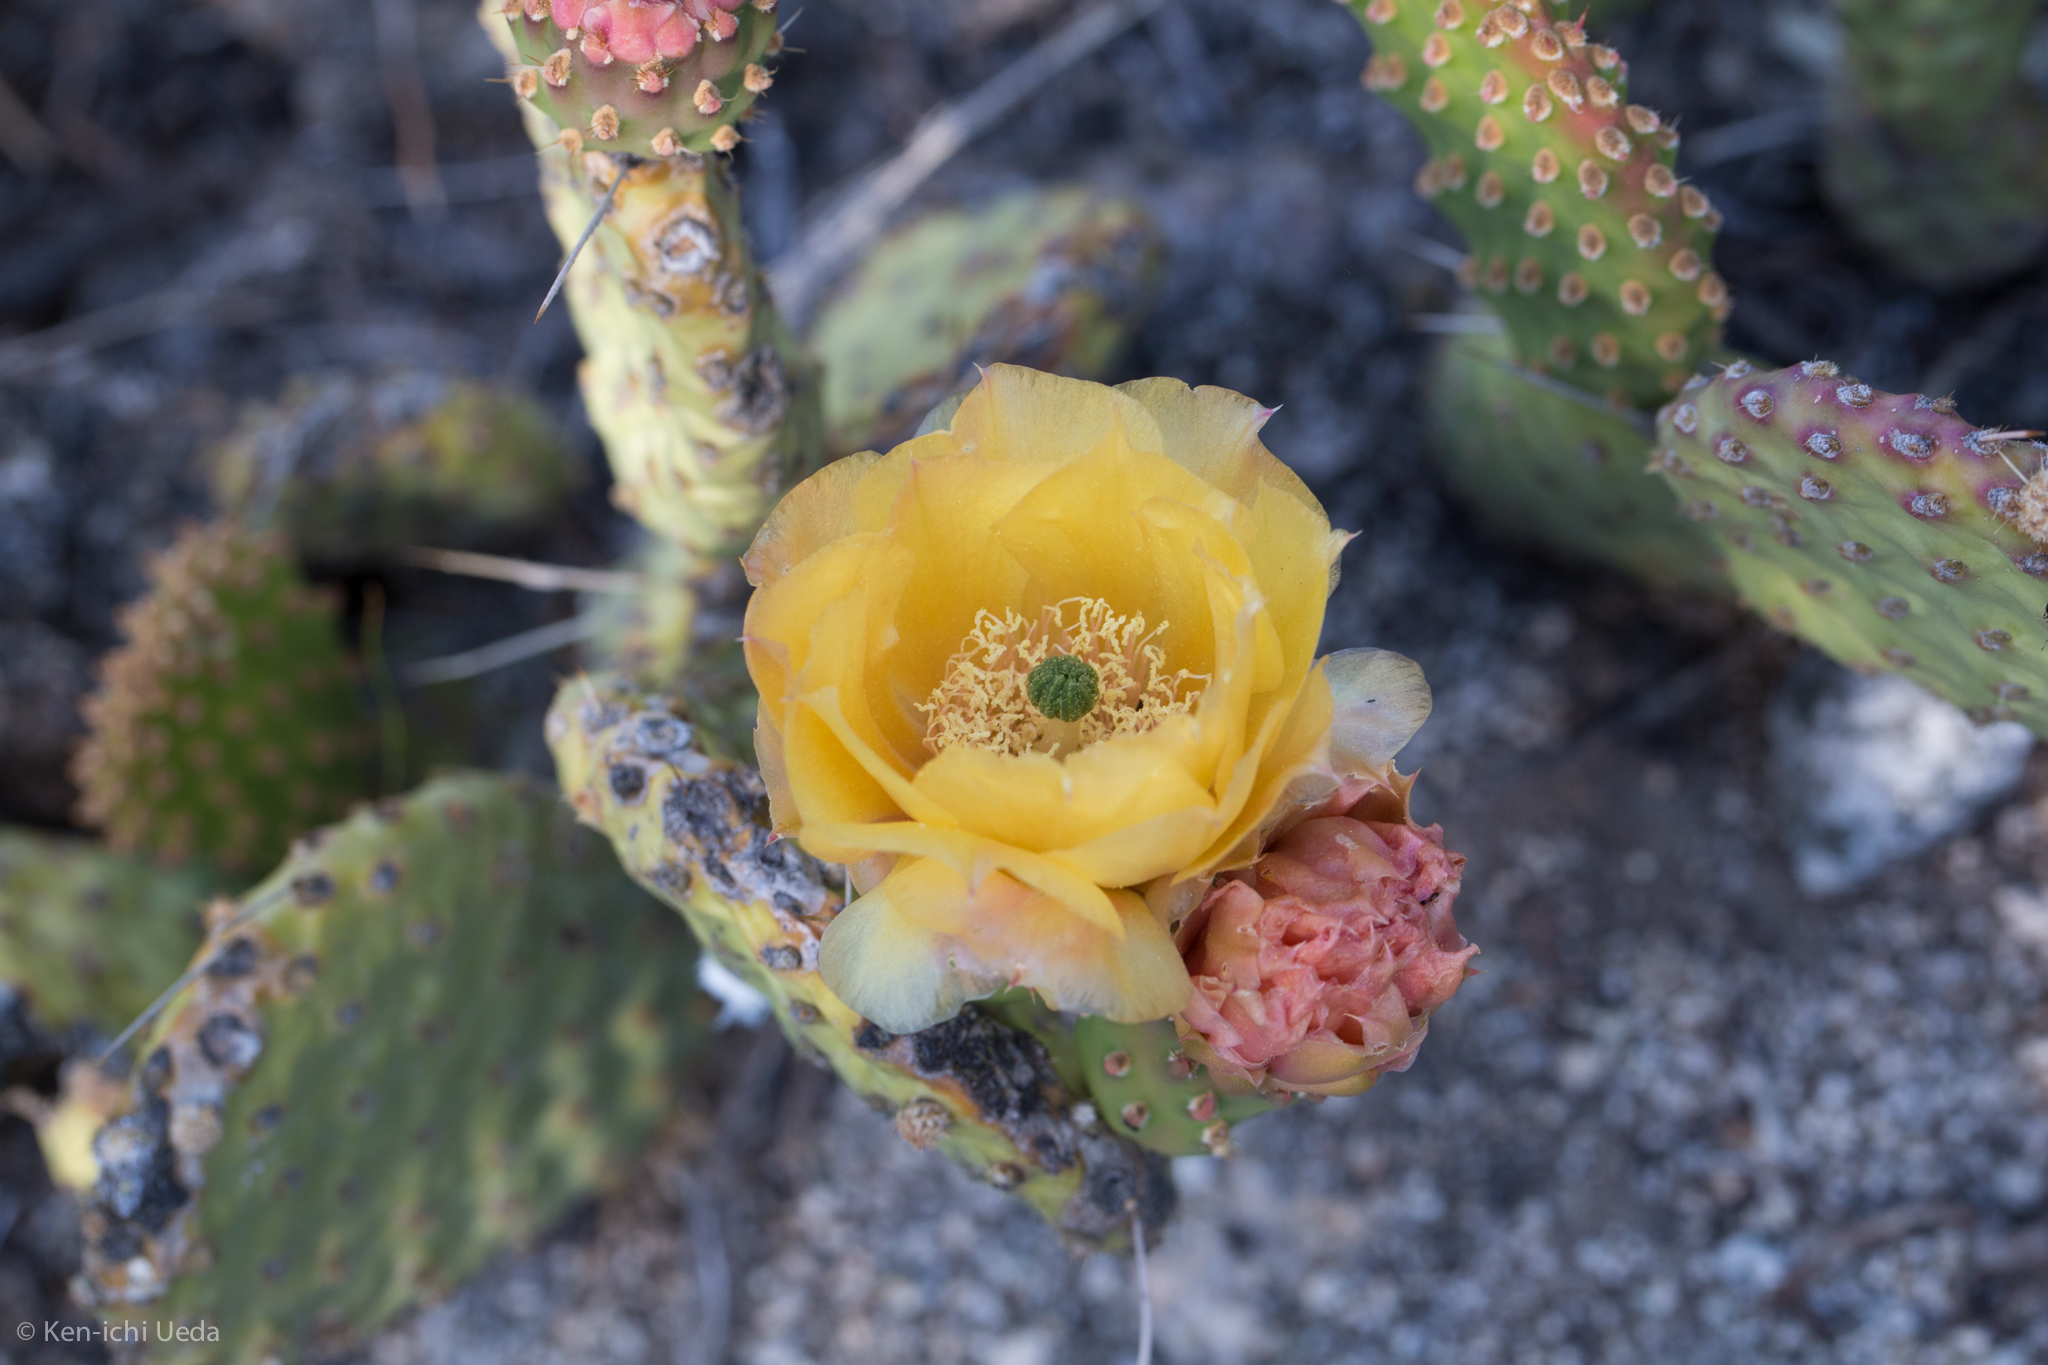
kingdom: Plantae
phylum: Tracheophyta
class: Magnoliopsida
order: Caryophyllales
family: Cactaceae
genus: Opuntia
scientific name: Opuntia polyacantha
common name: Plains prickly-pear
